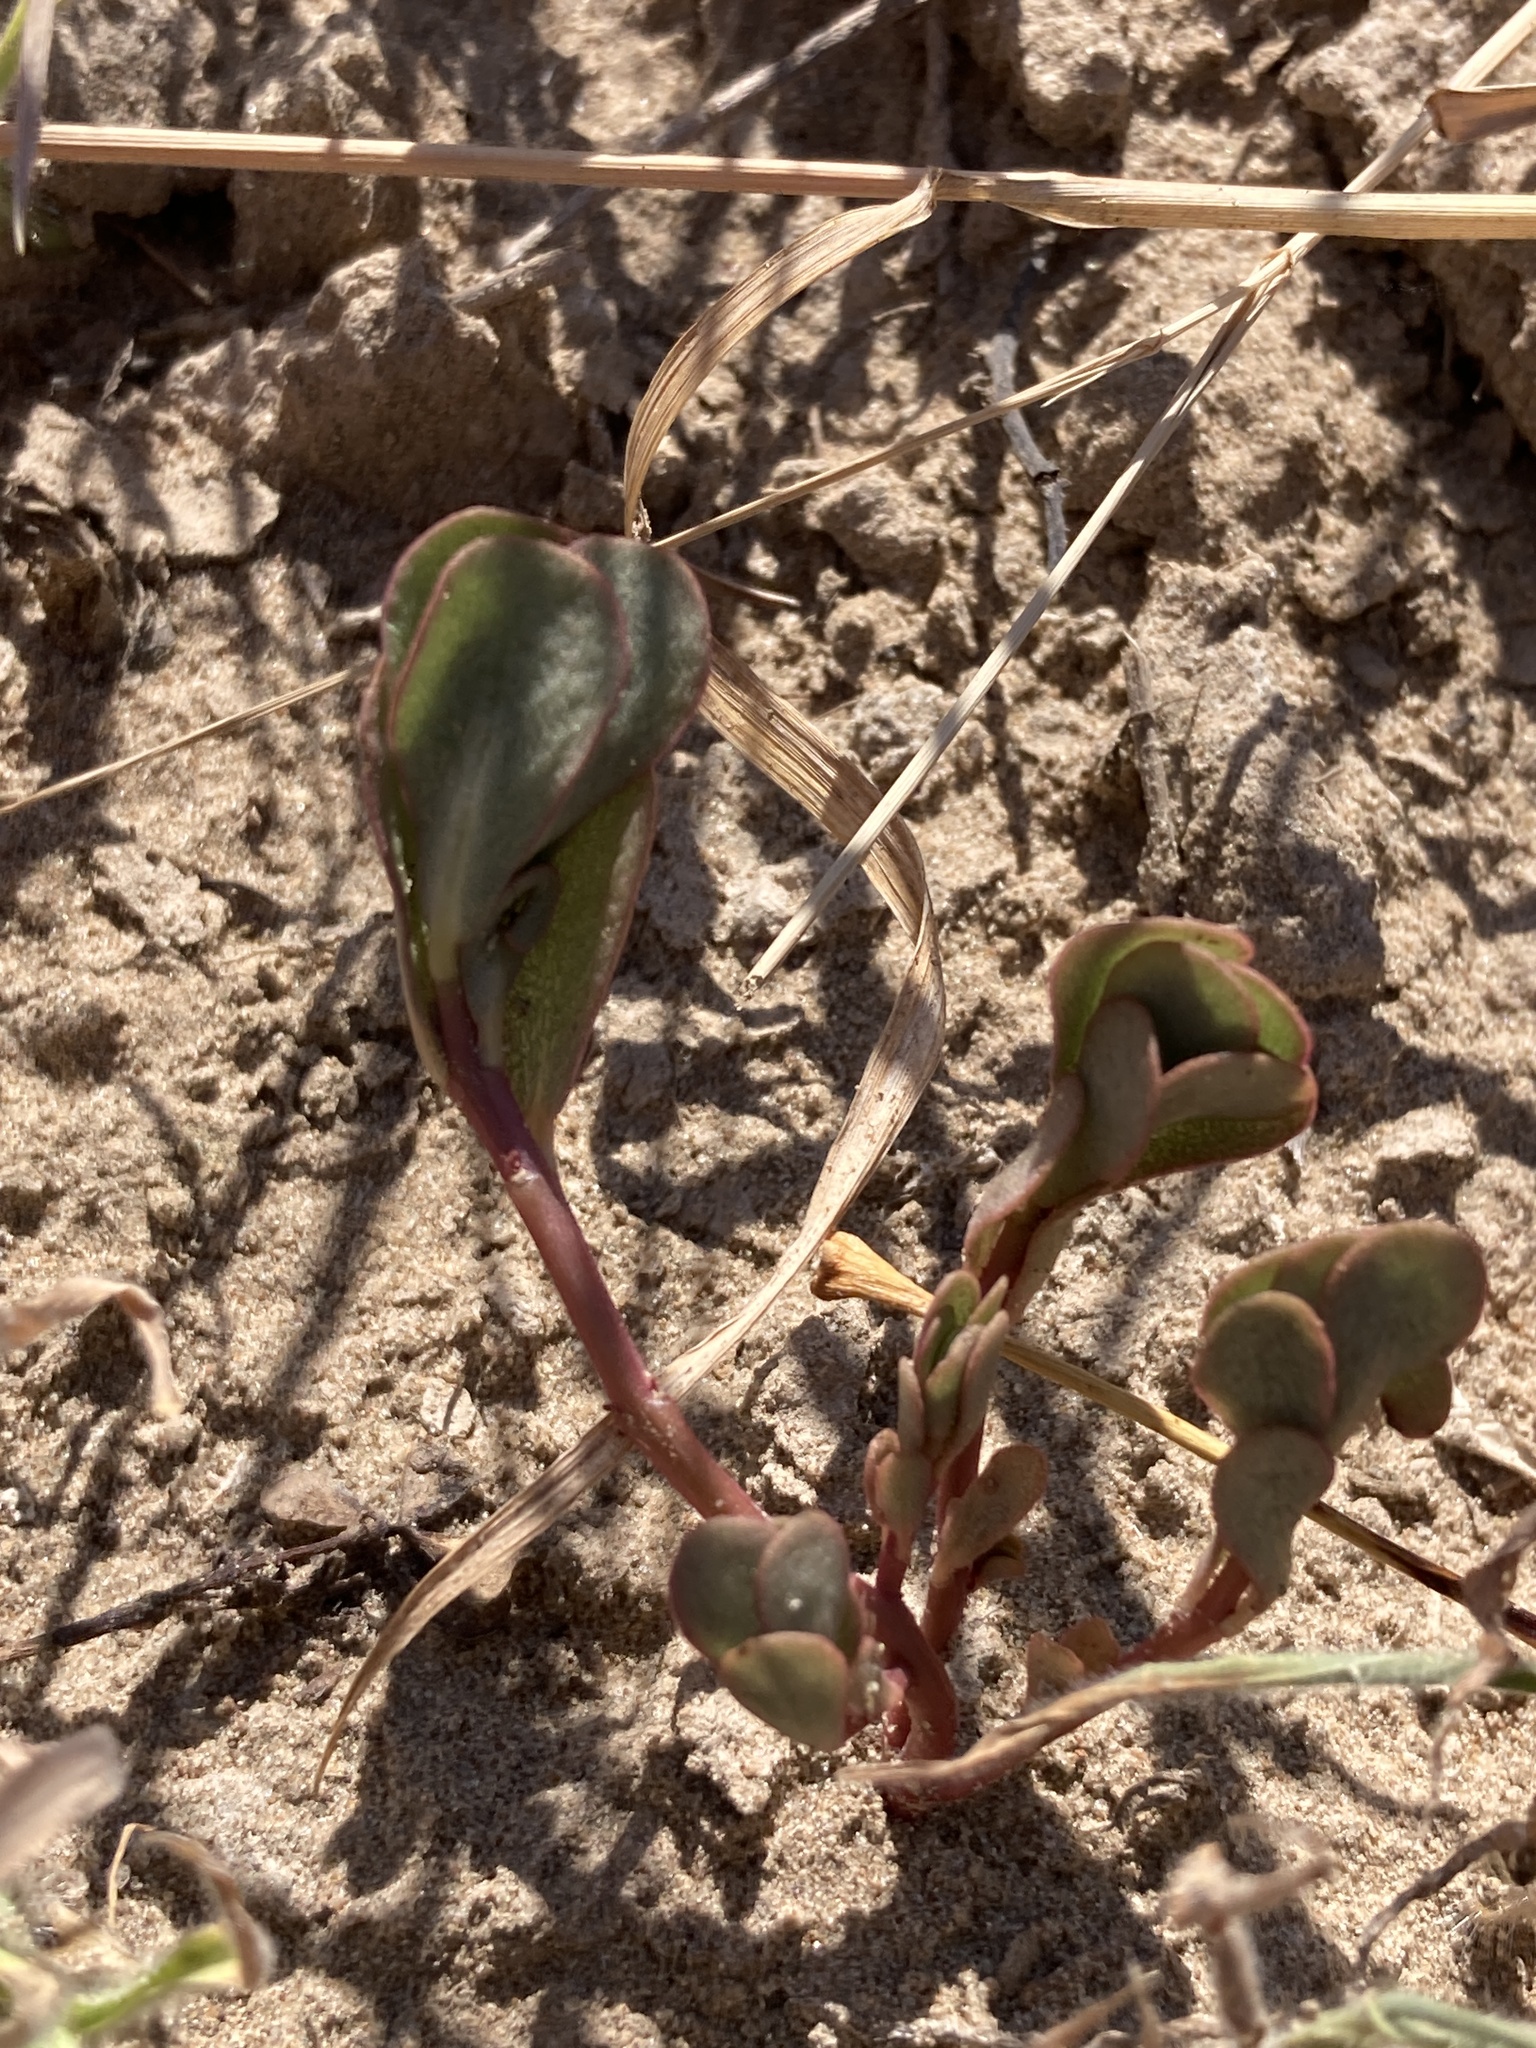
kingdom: Plantae
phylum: Tracheophyta
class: Magnoliopsida
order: Caryophyllales
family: Portulacaceae
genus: Portulaca
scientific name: Portulaca oleracea
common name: Common purslane
